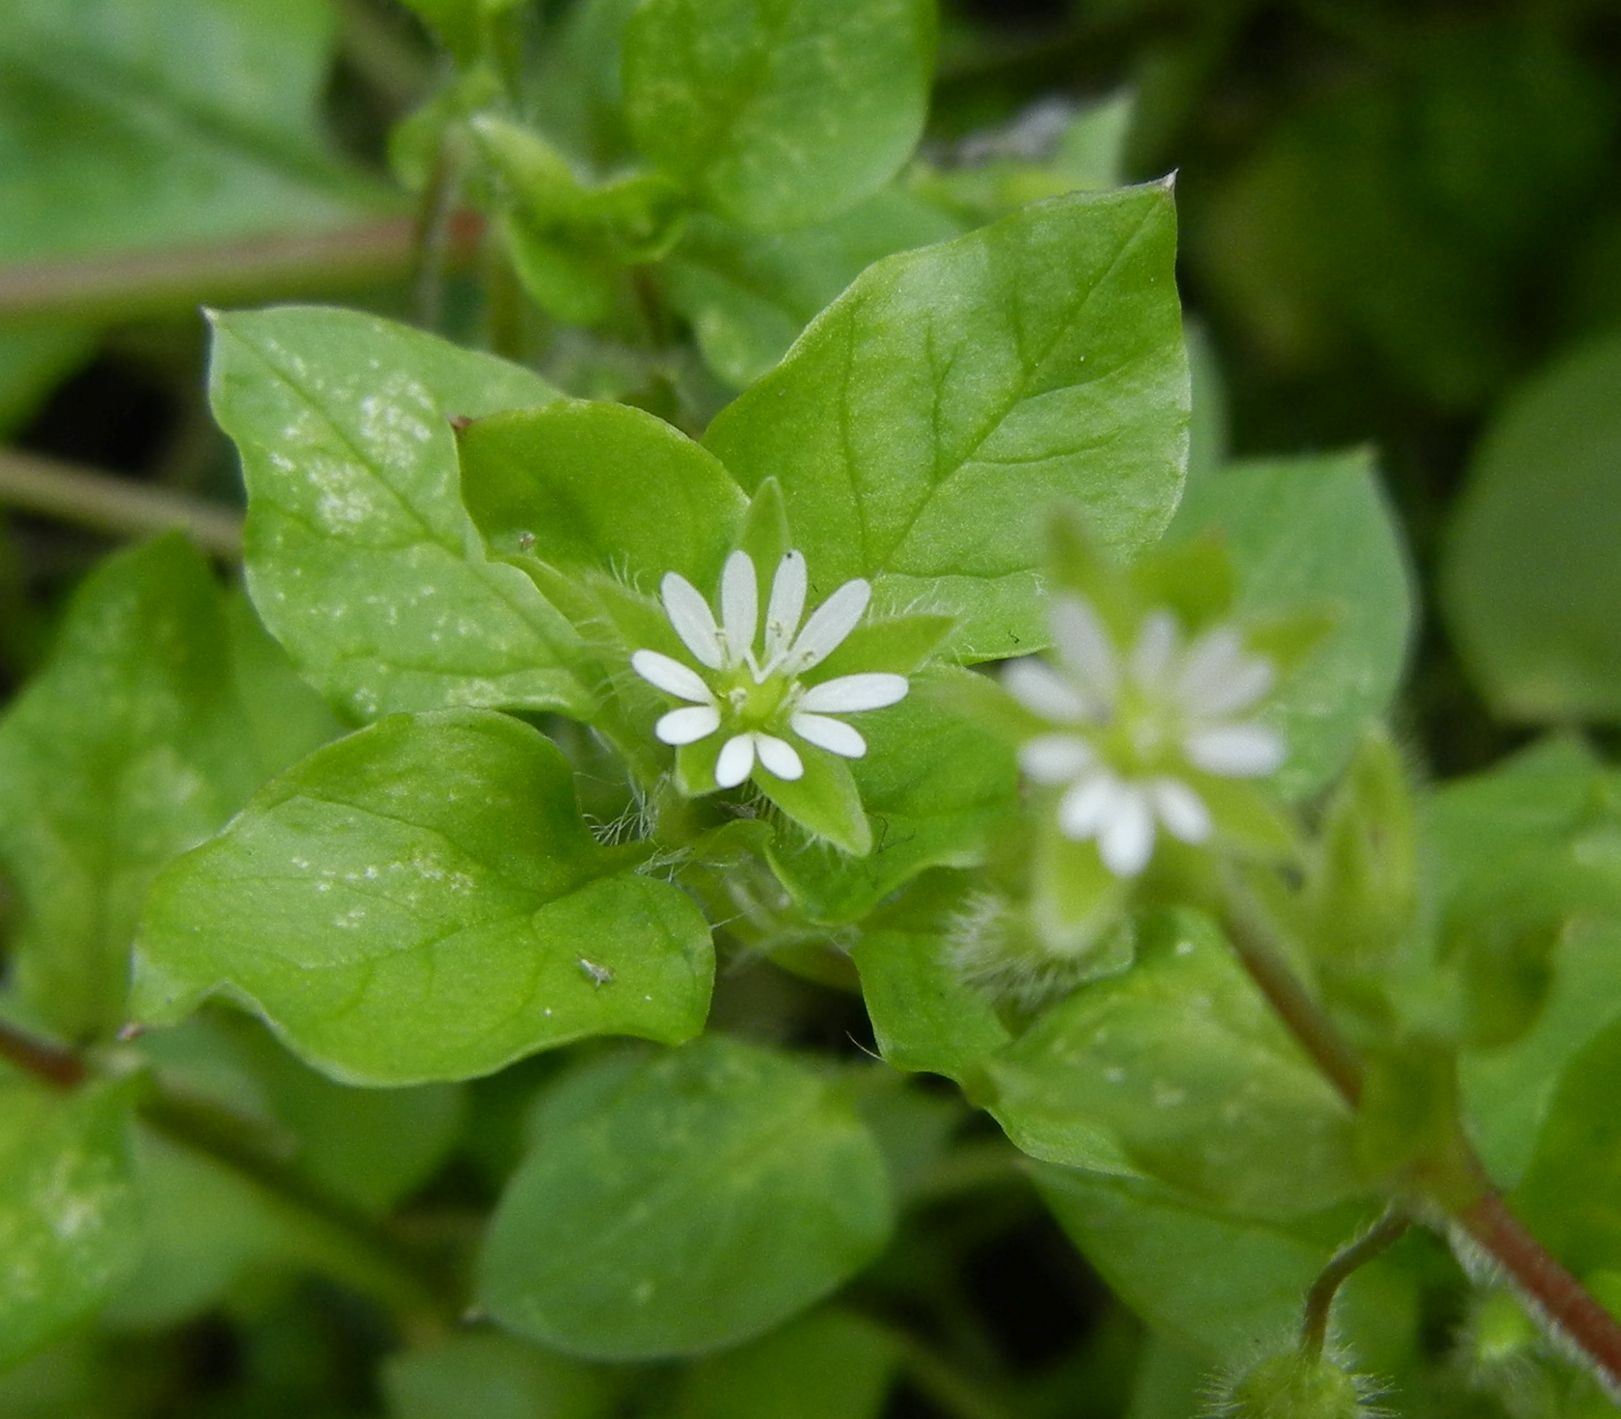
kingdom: Plantae
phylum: Tracheophyta
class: Magnoliopsida
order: Caryophyllales
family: Caryophyllaceae
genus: Stellaria
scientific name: Stellaria media
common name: Common chickweed
